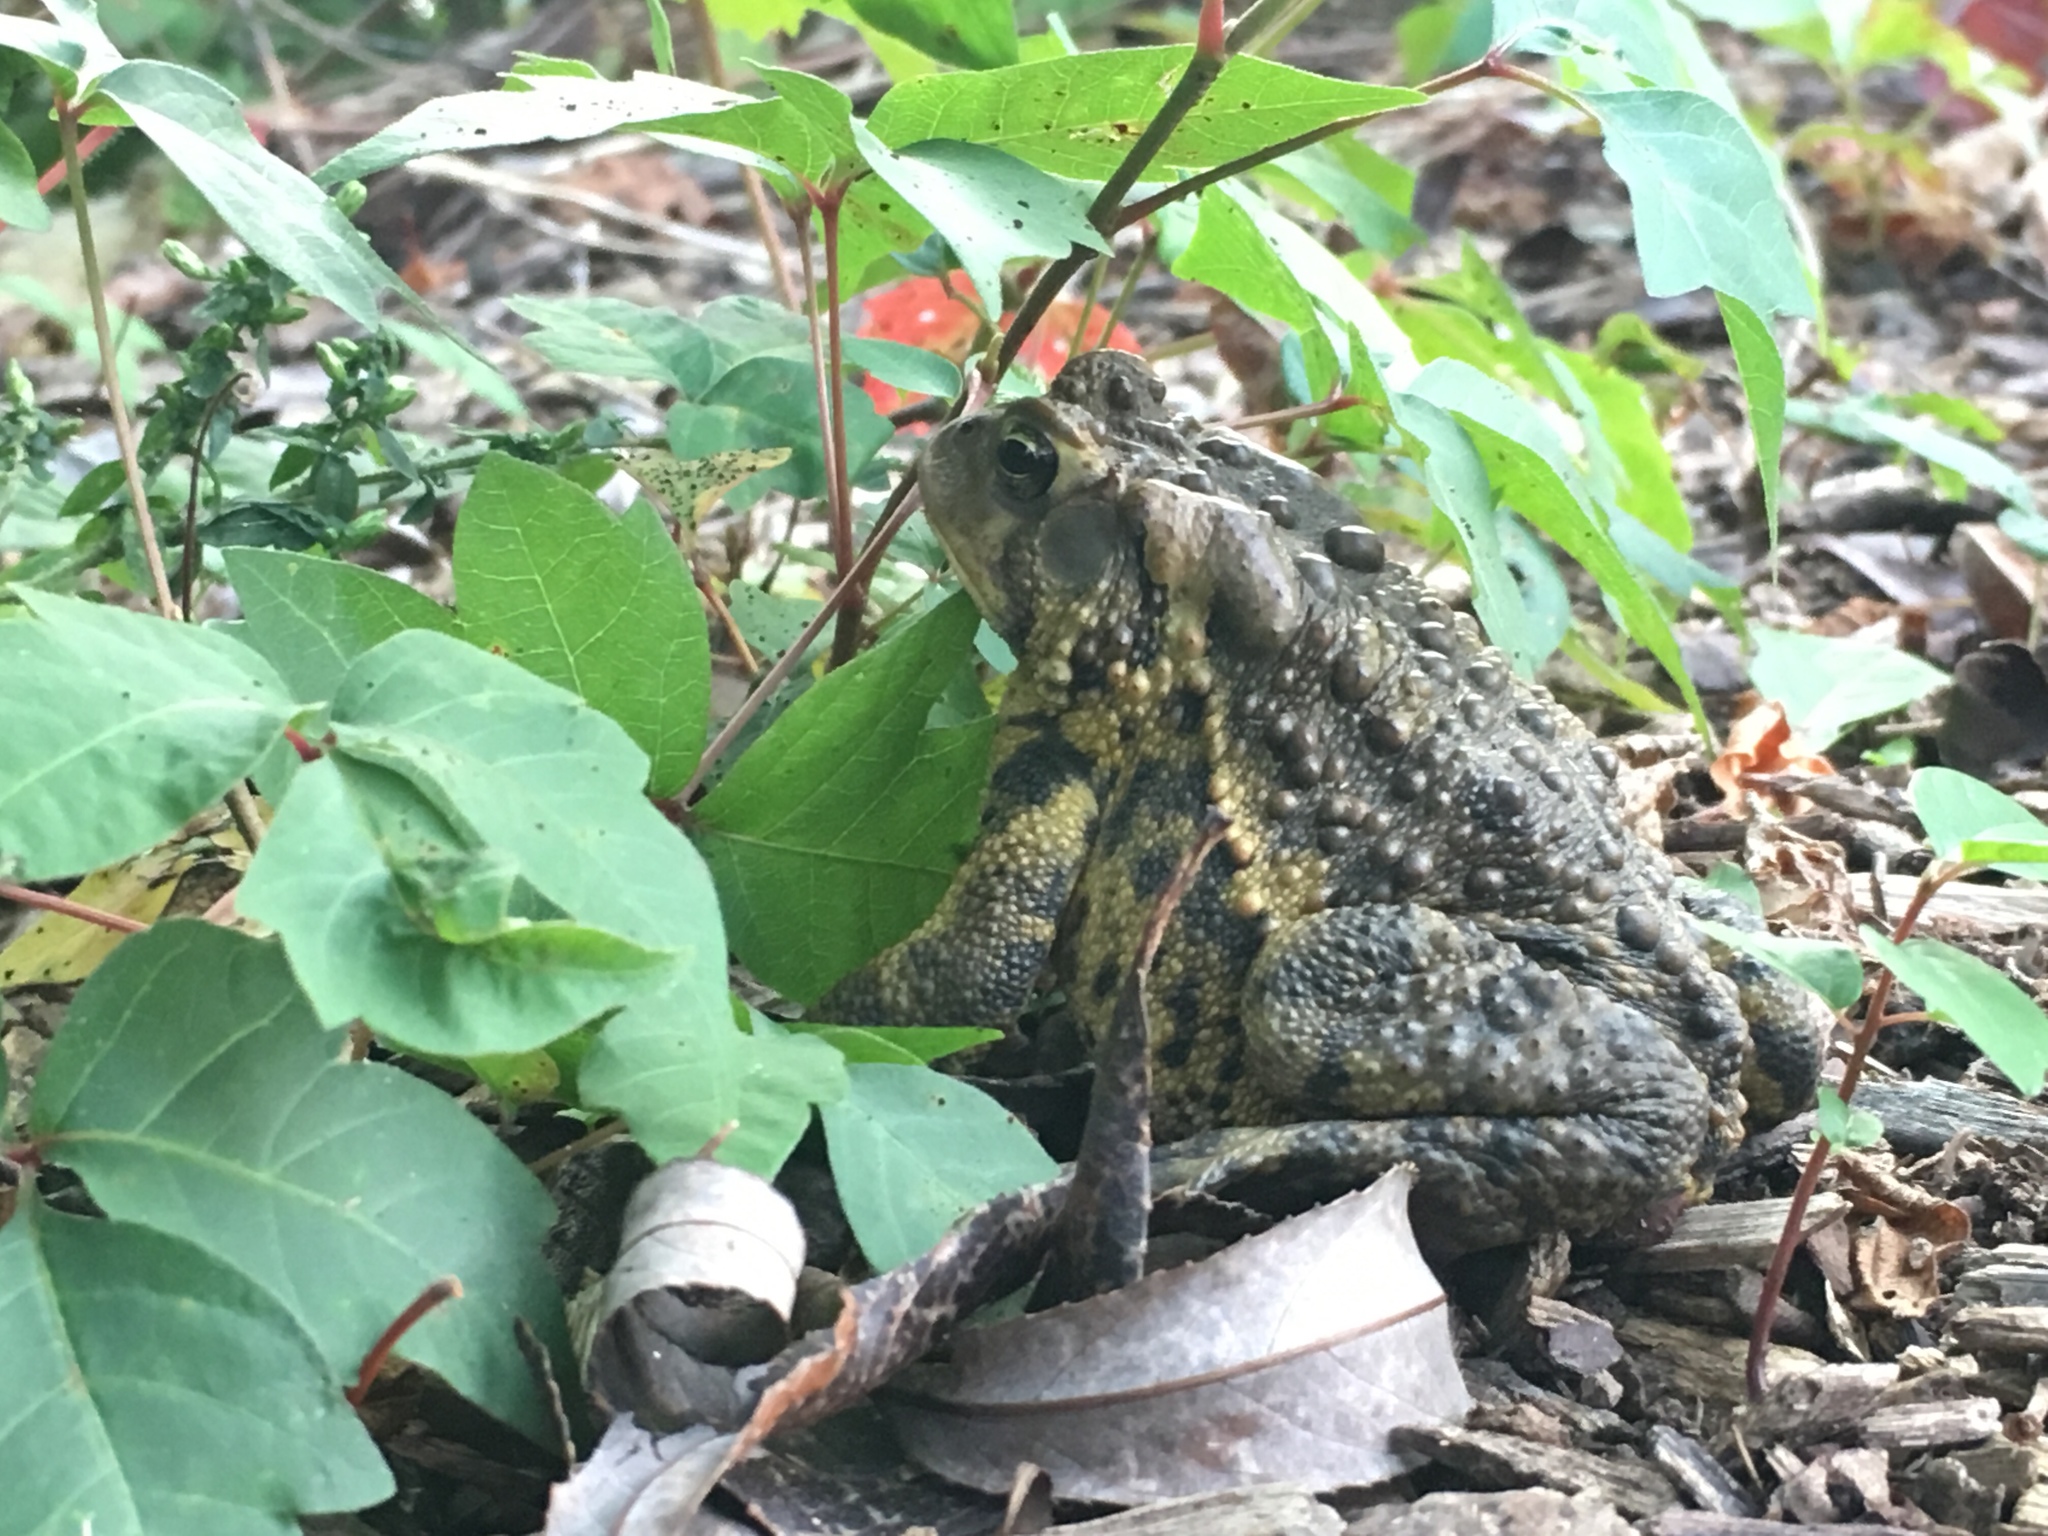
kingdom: Animalia
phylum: Chordata
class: Amphibia
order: Anura
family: Bufonidae
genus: Anaxyrus
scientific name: Anaxyrus americanus
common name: American toad
